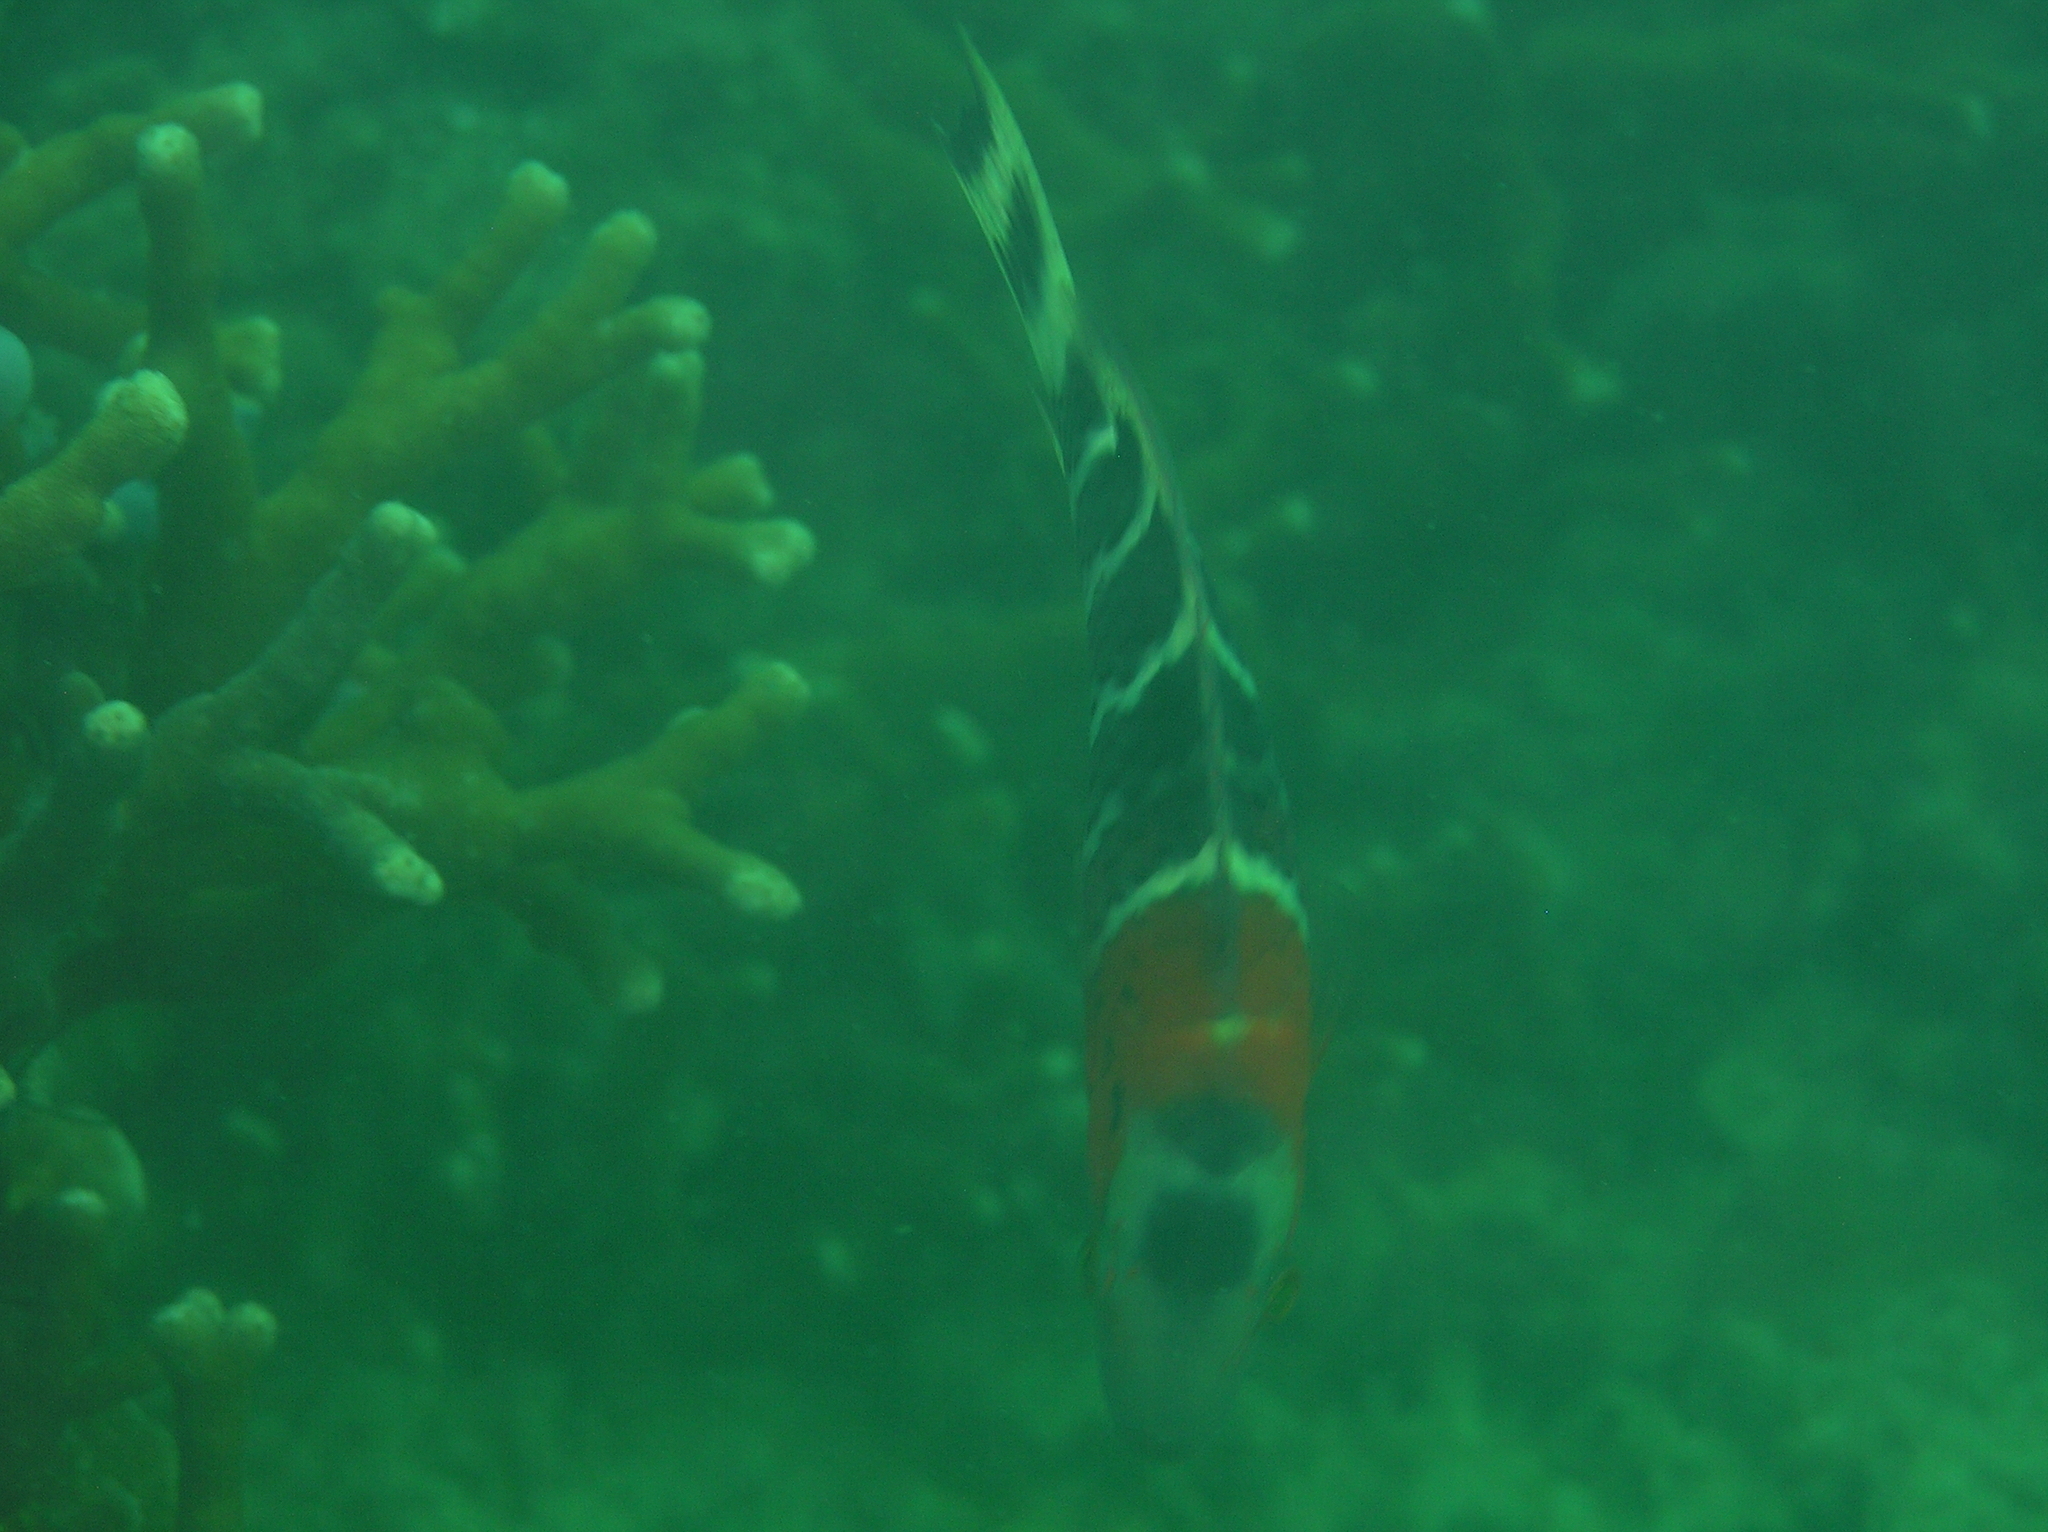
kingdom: Animalia
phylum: Chordata
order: Perciformes
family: Labridae
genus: Cheilinus
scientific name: Cheilinus fasciatus
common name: Red-breasted wrasse
